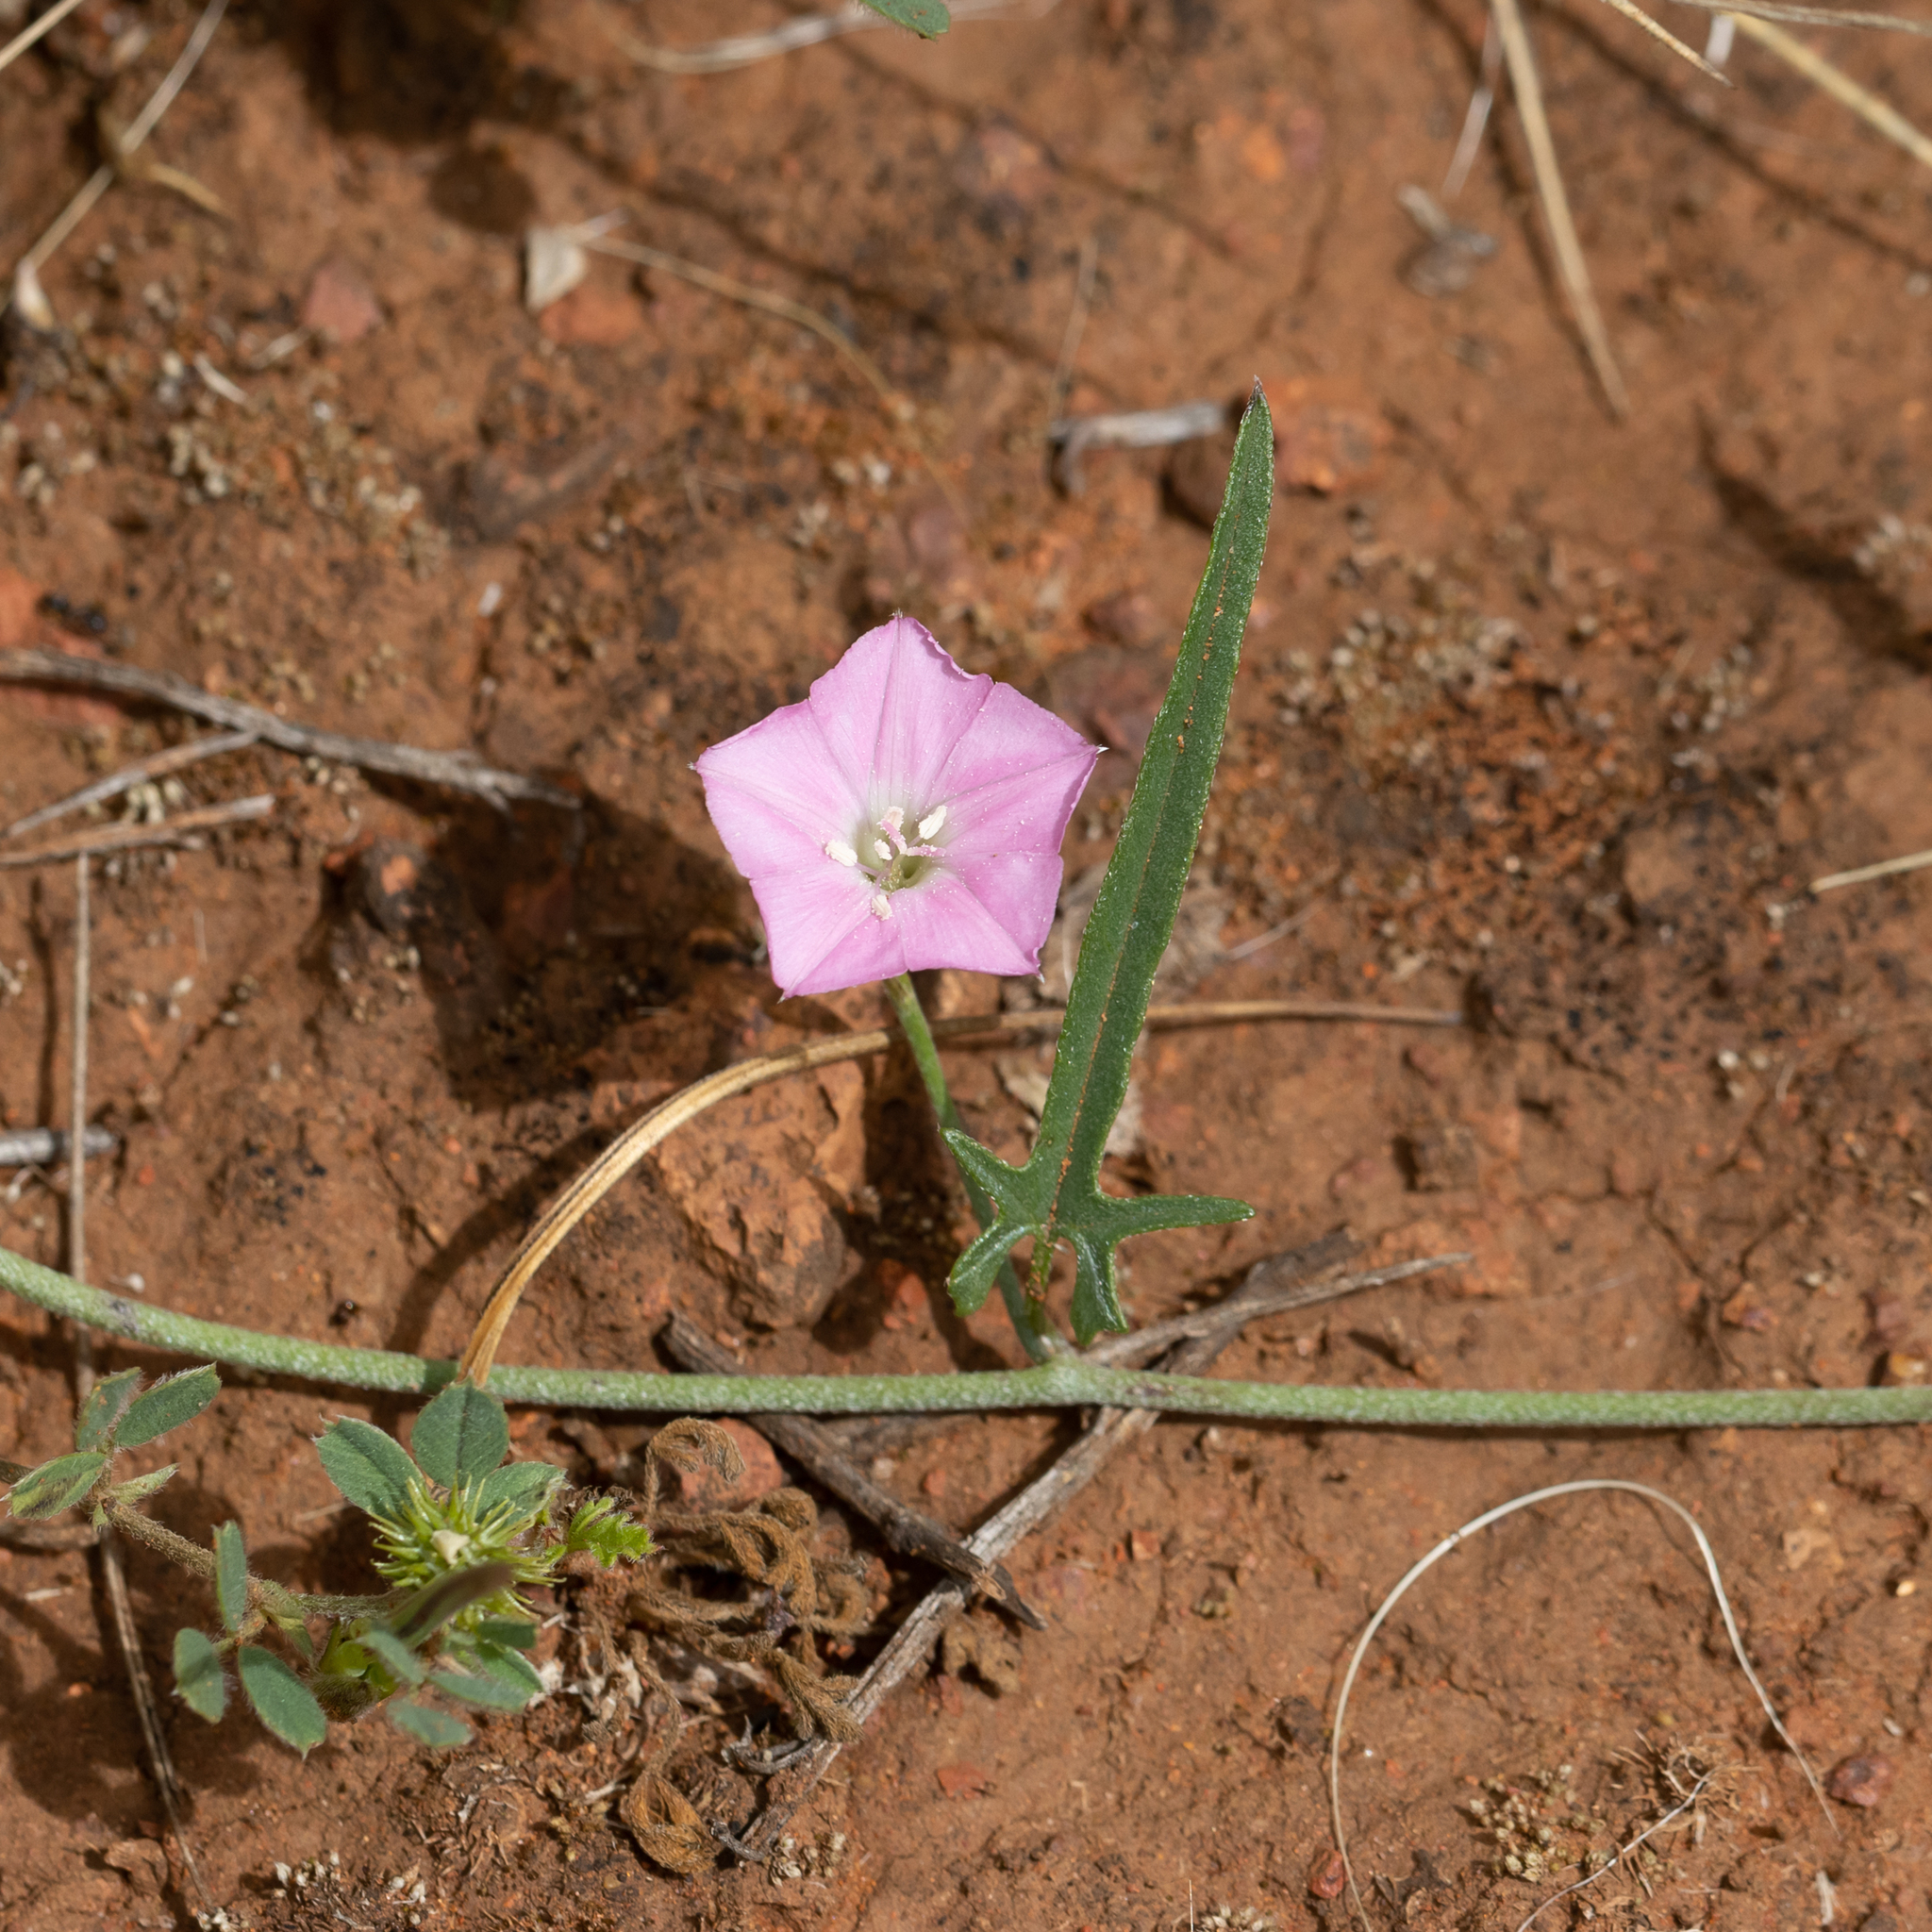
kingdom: Plantae
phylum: Tracheophyta
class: Magnoliopsida
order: Solanales
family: Convolvulaceae
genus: Convolvulus
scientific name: Convolvulus angustissimus
